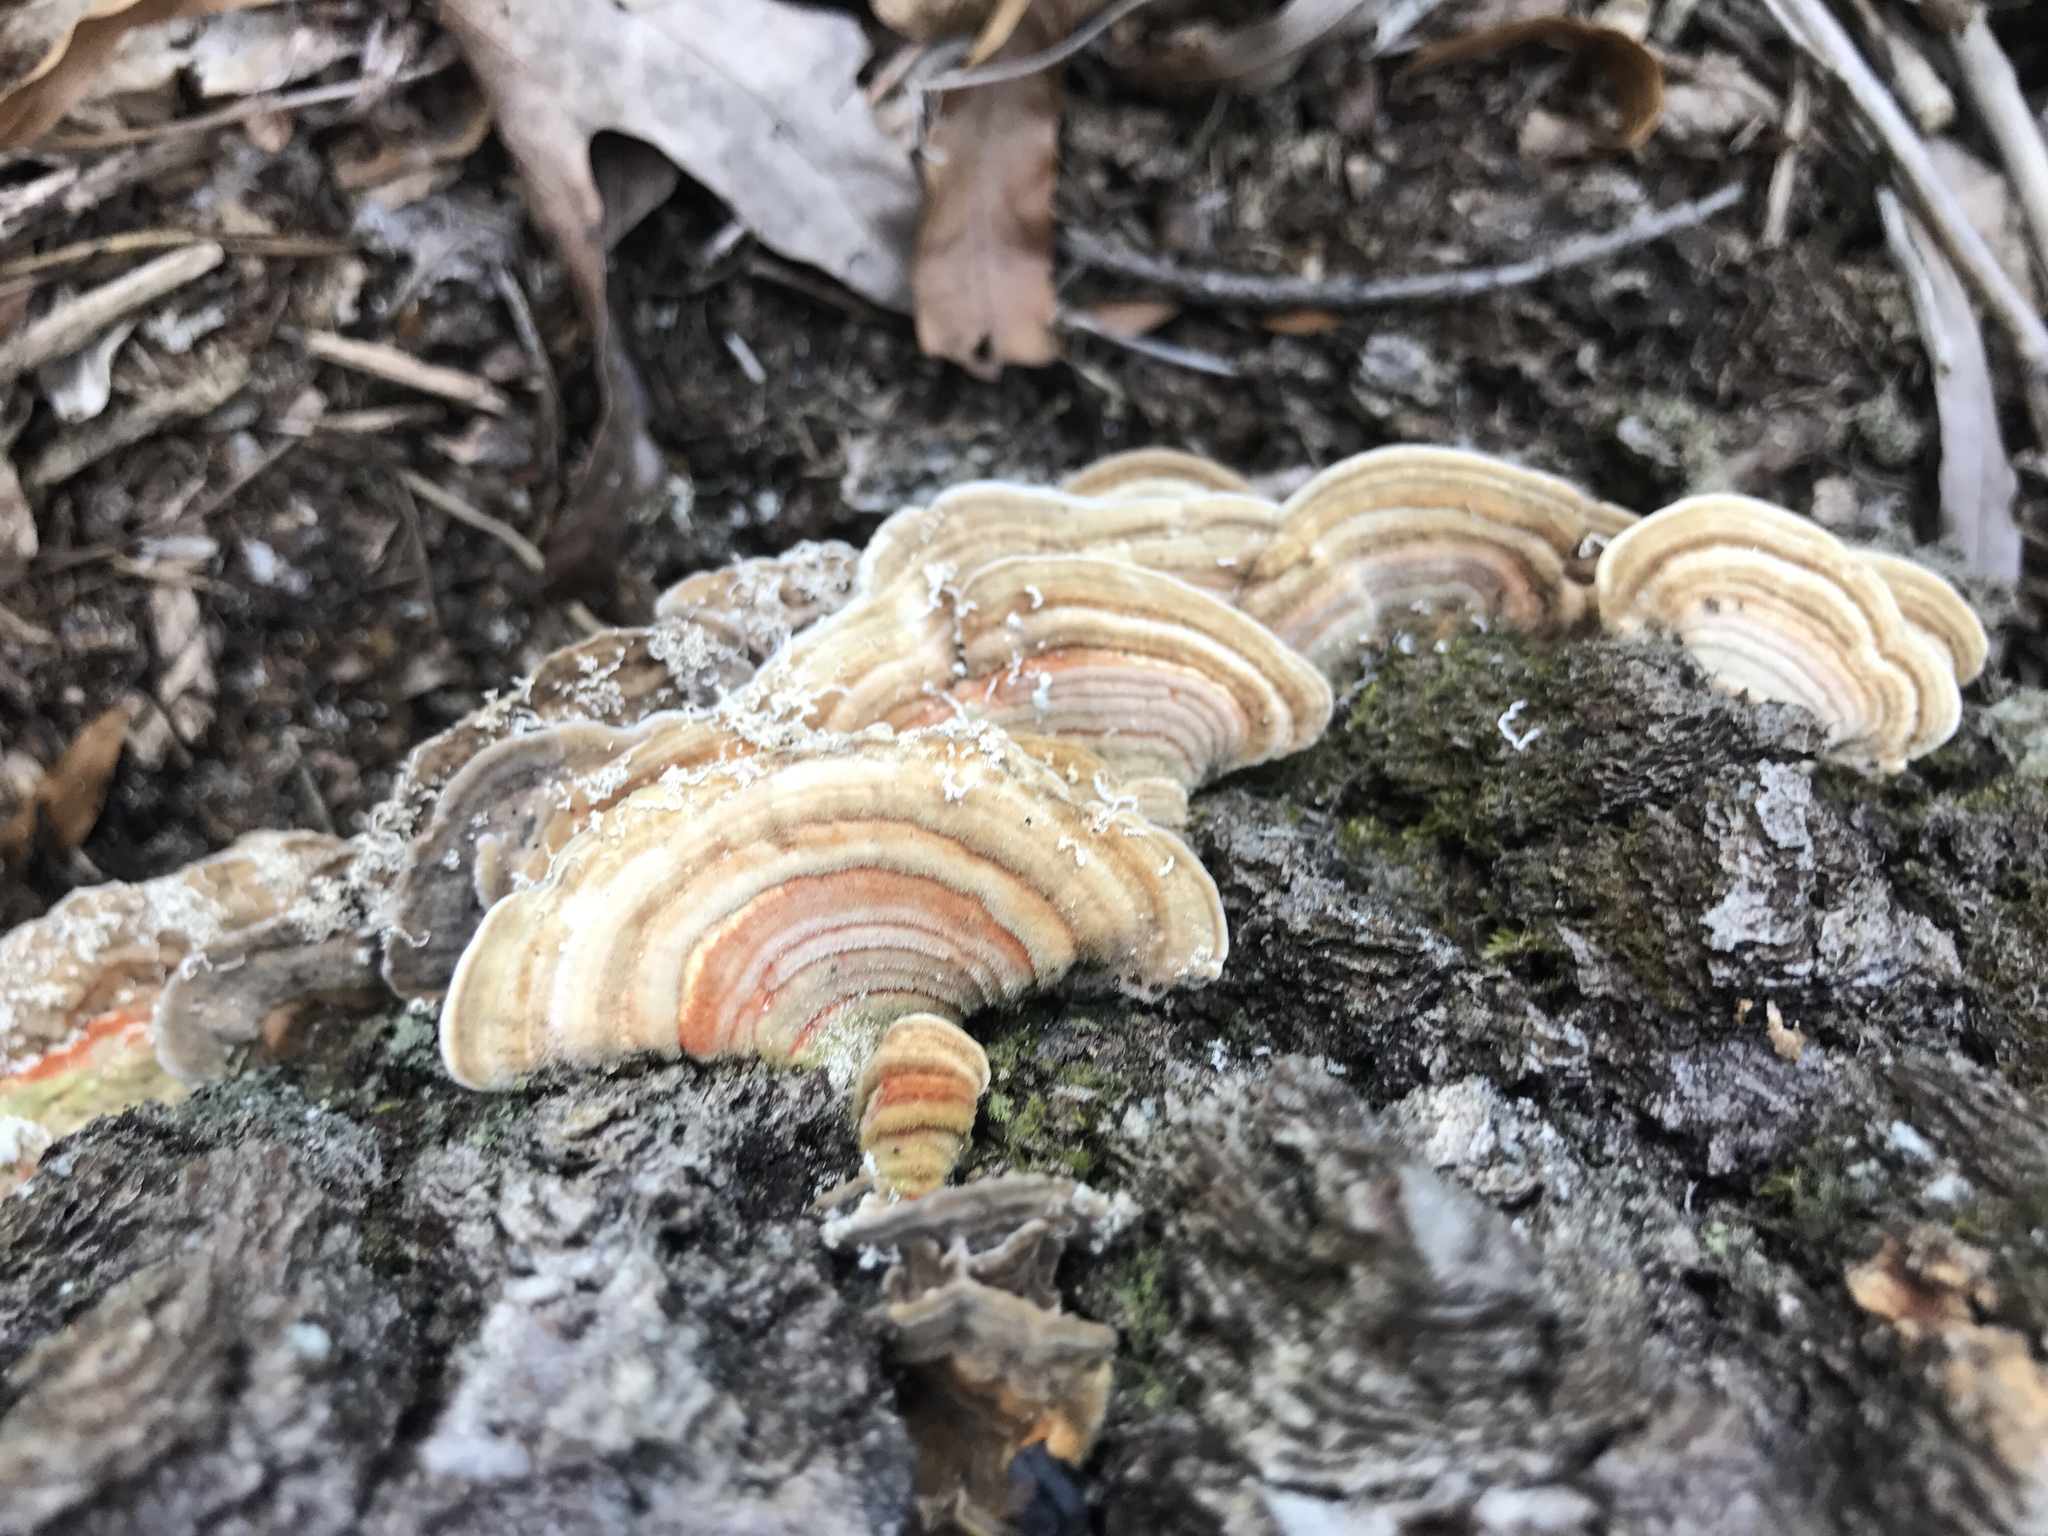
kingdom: Fungi
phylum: Basidiomycota
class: Agaricomycetes
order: Polyporales
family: Polyporaceae
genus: Lenzites
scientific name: Lenzites betulinus
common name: Birch mazegill
